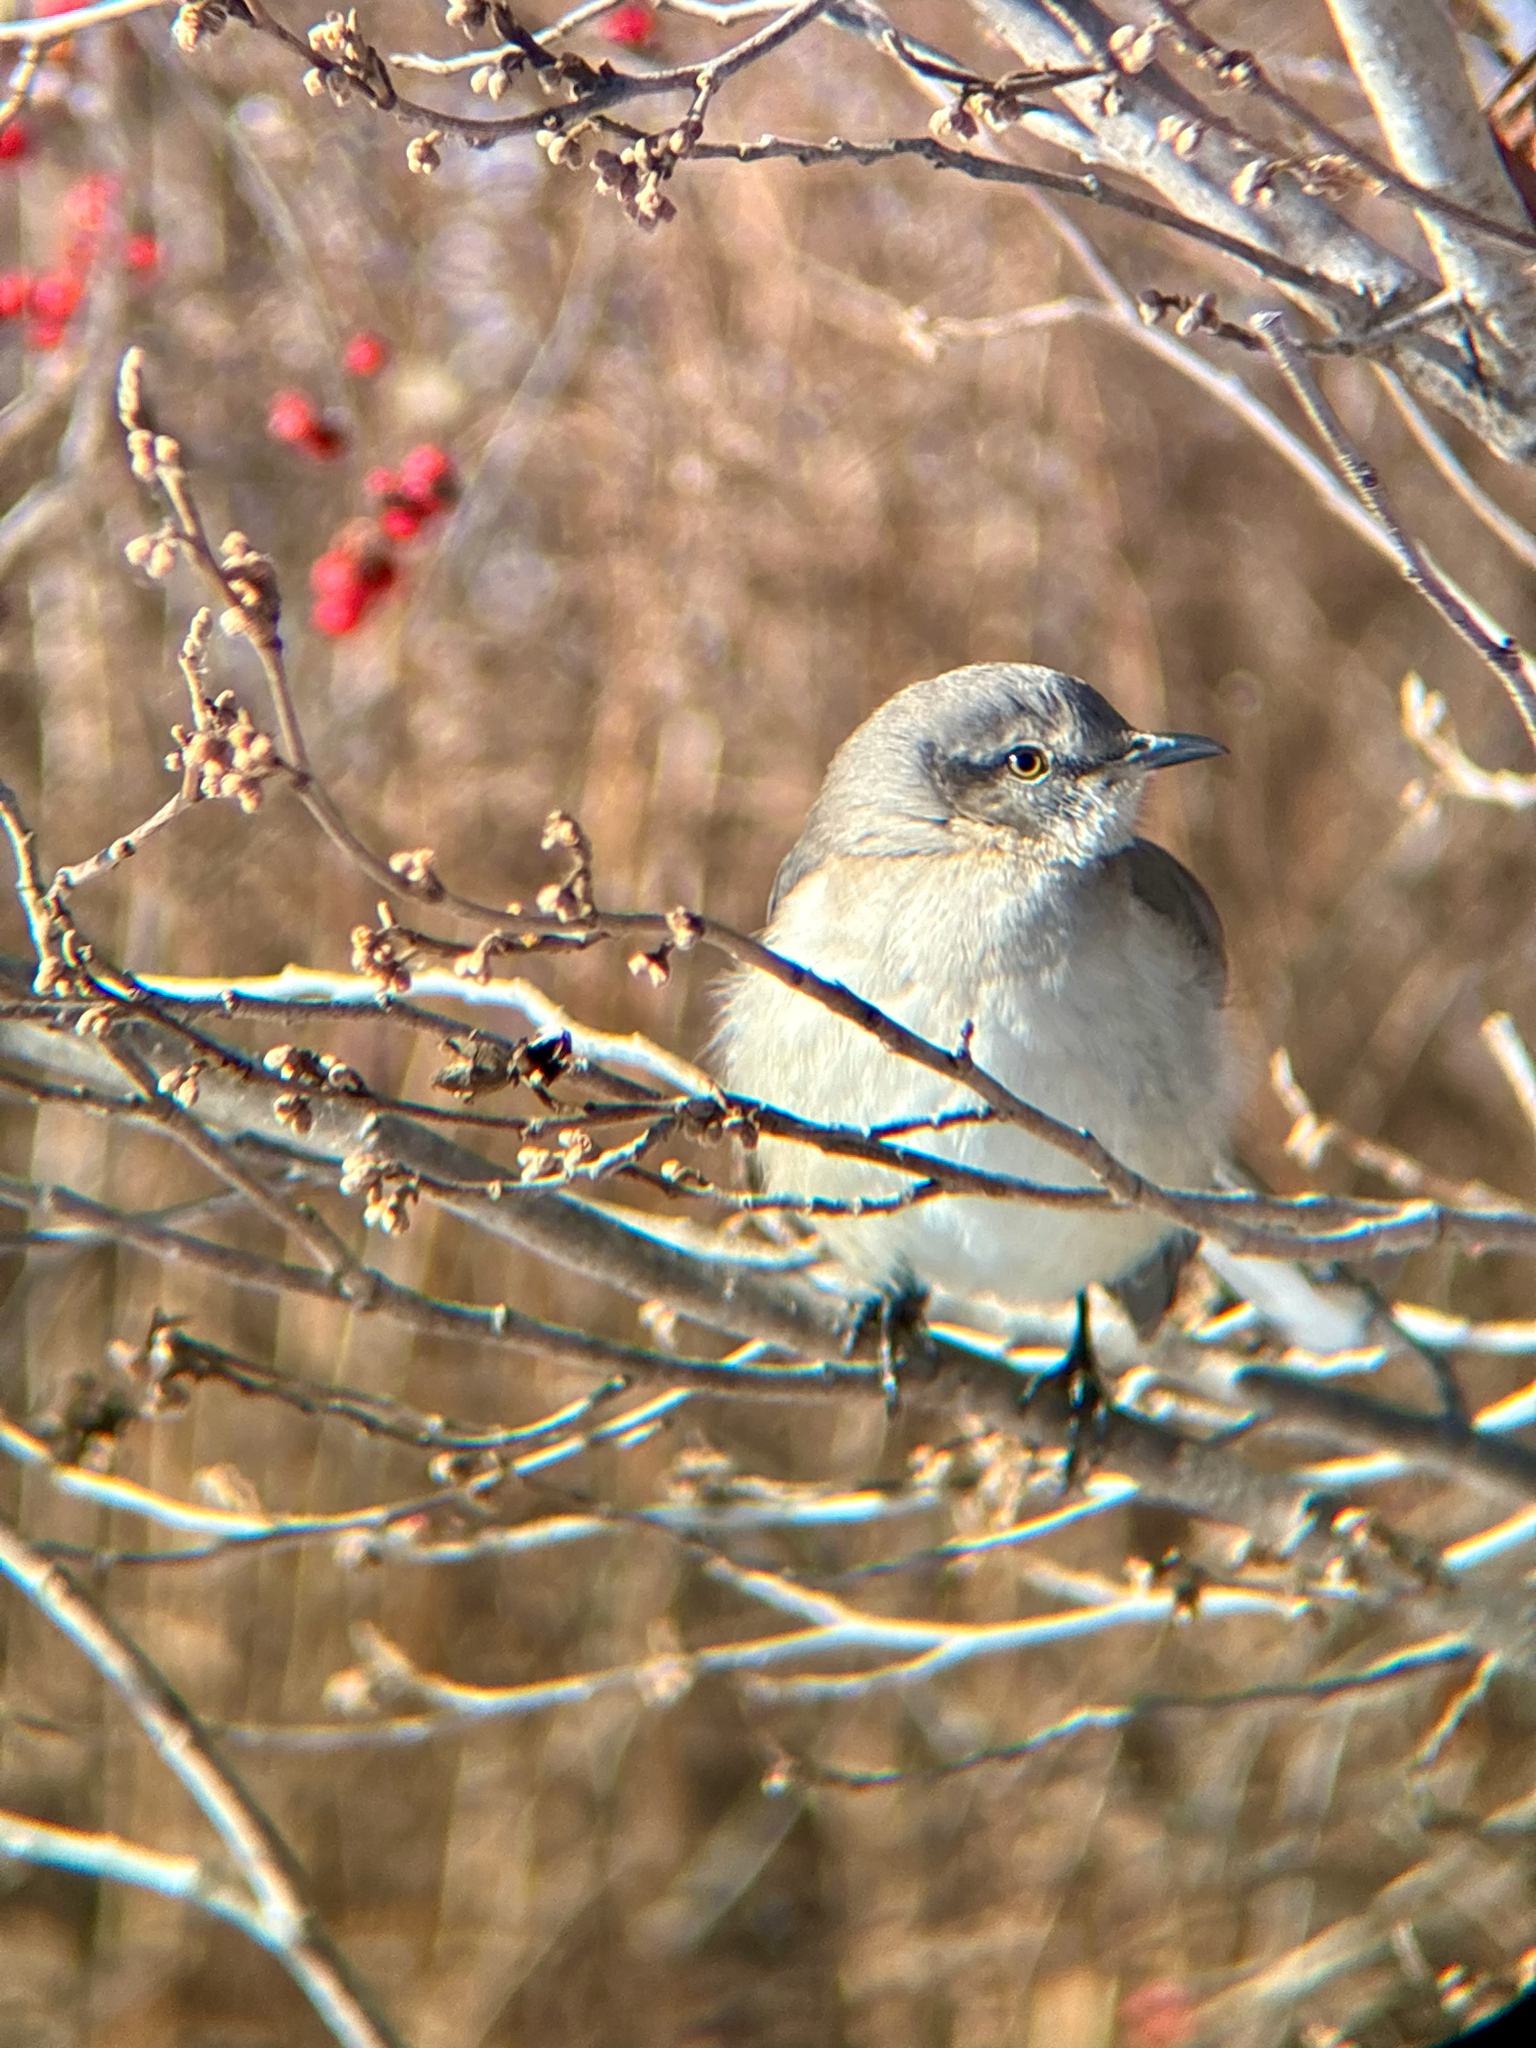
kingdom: Animalia
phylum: Chordata
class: Aves
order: Passeriformes
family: Mimidae
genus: Mimus
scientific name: Mimus polyglottos
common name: Northern mockingbird
